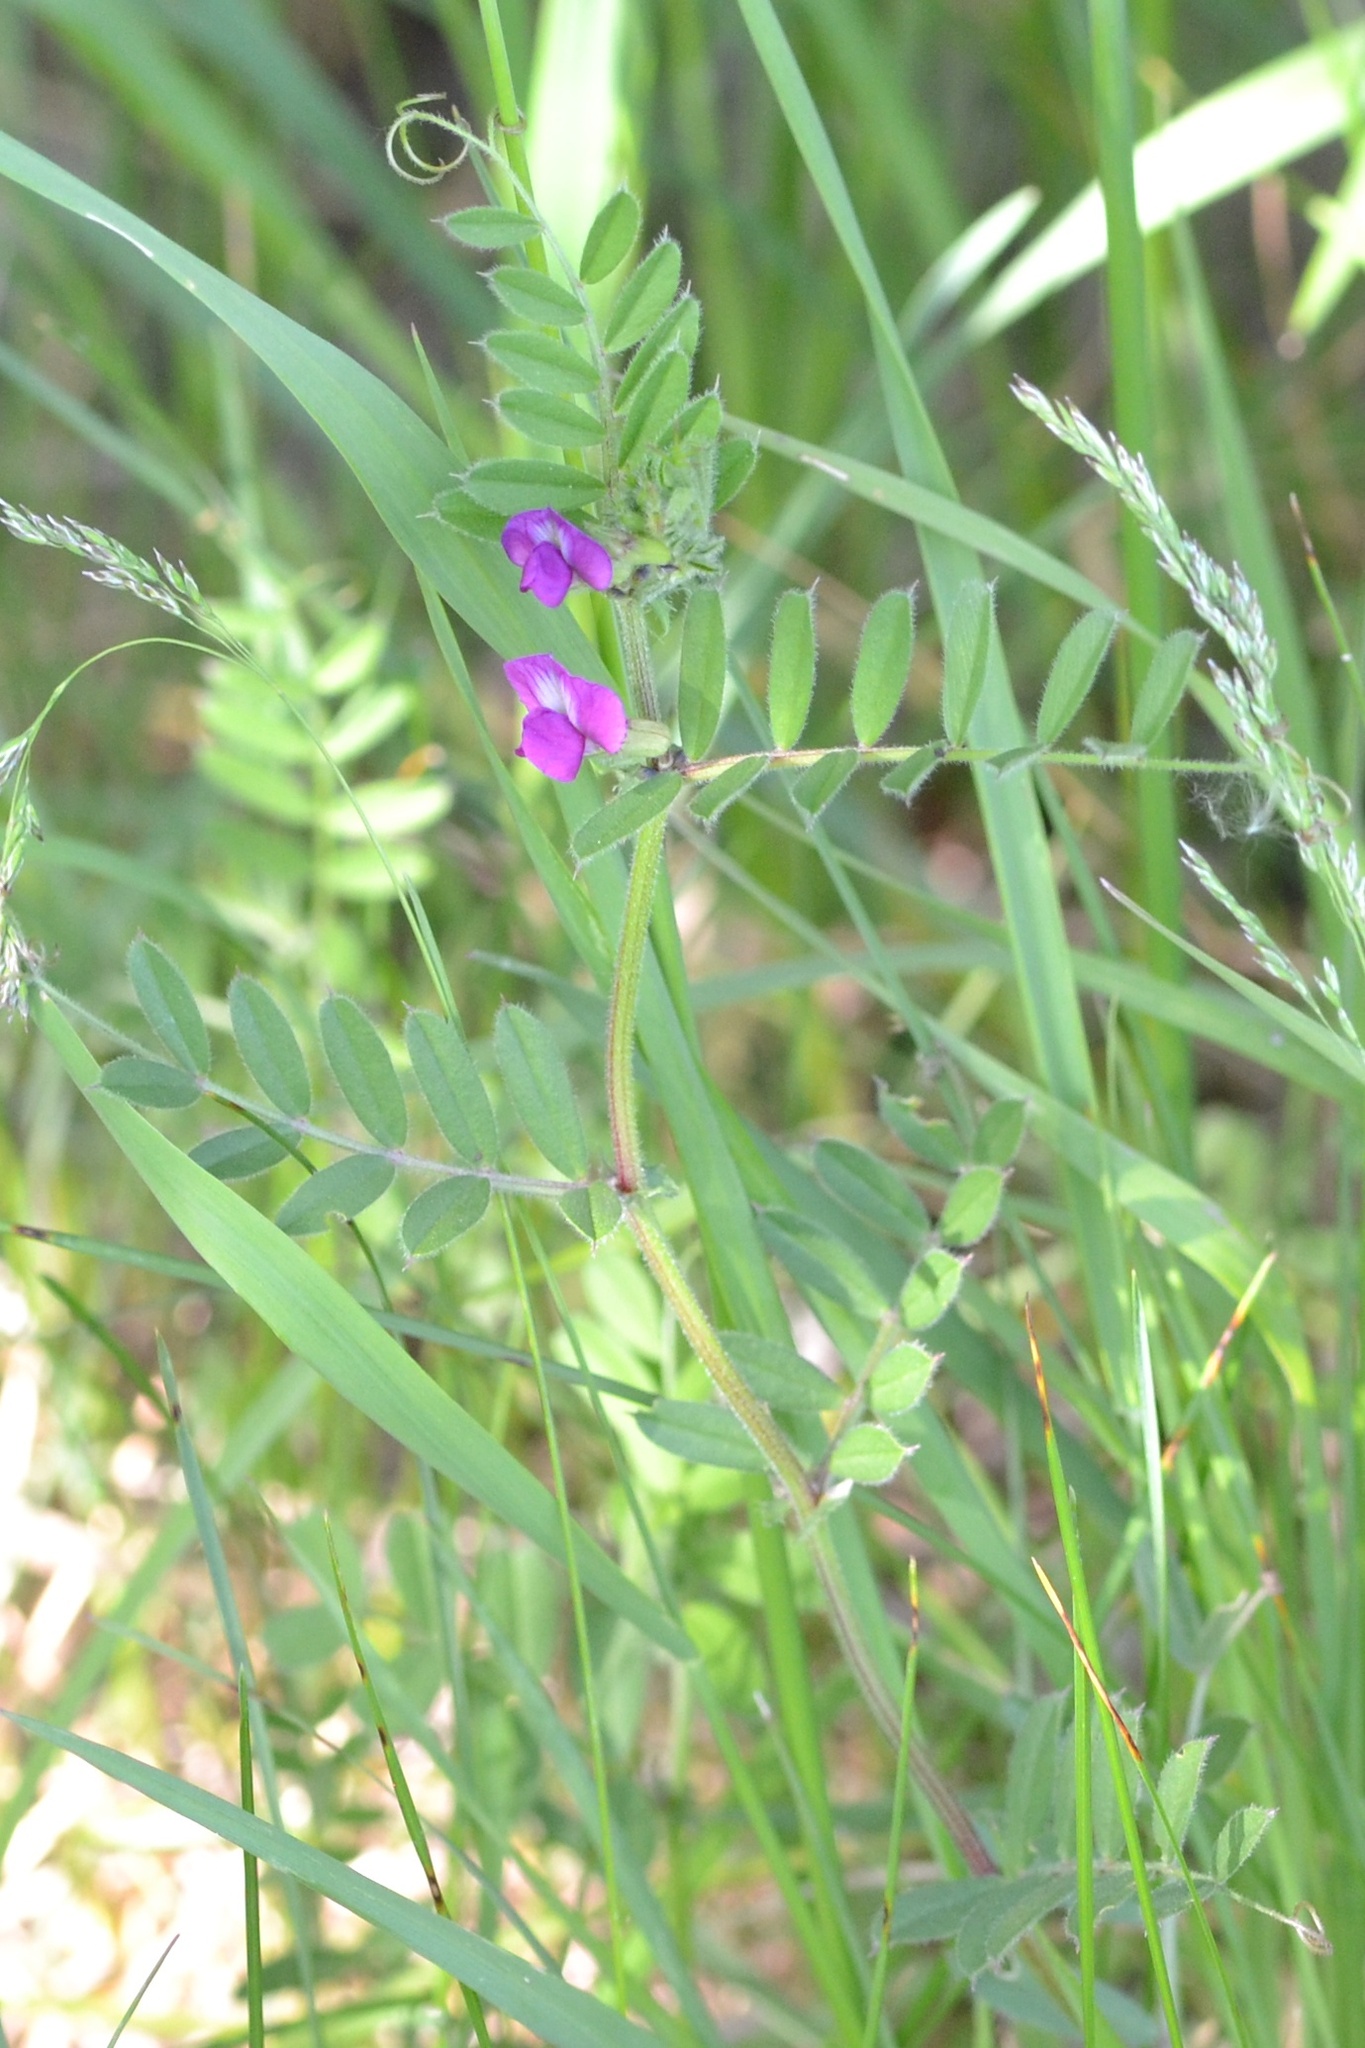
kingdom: Plantae
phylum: Tracheophyta
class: Magnoliopsida
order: Fabales
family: Fabaceae
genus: Vicia
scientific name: Vicia sativa
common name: Garden vetch
